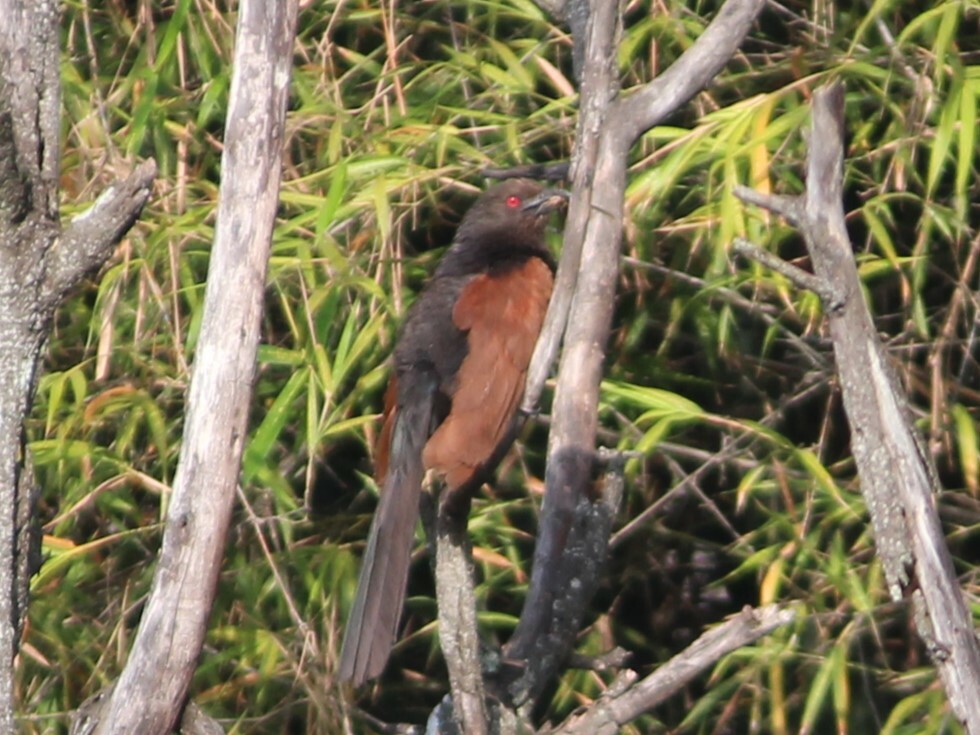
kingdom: Animalia
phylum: Chordata
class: Aves
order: Cuculiformes
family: Cuculidae
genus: Centropus
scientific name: Centropus sinensis
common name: Greater coucal
